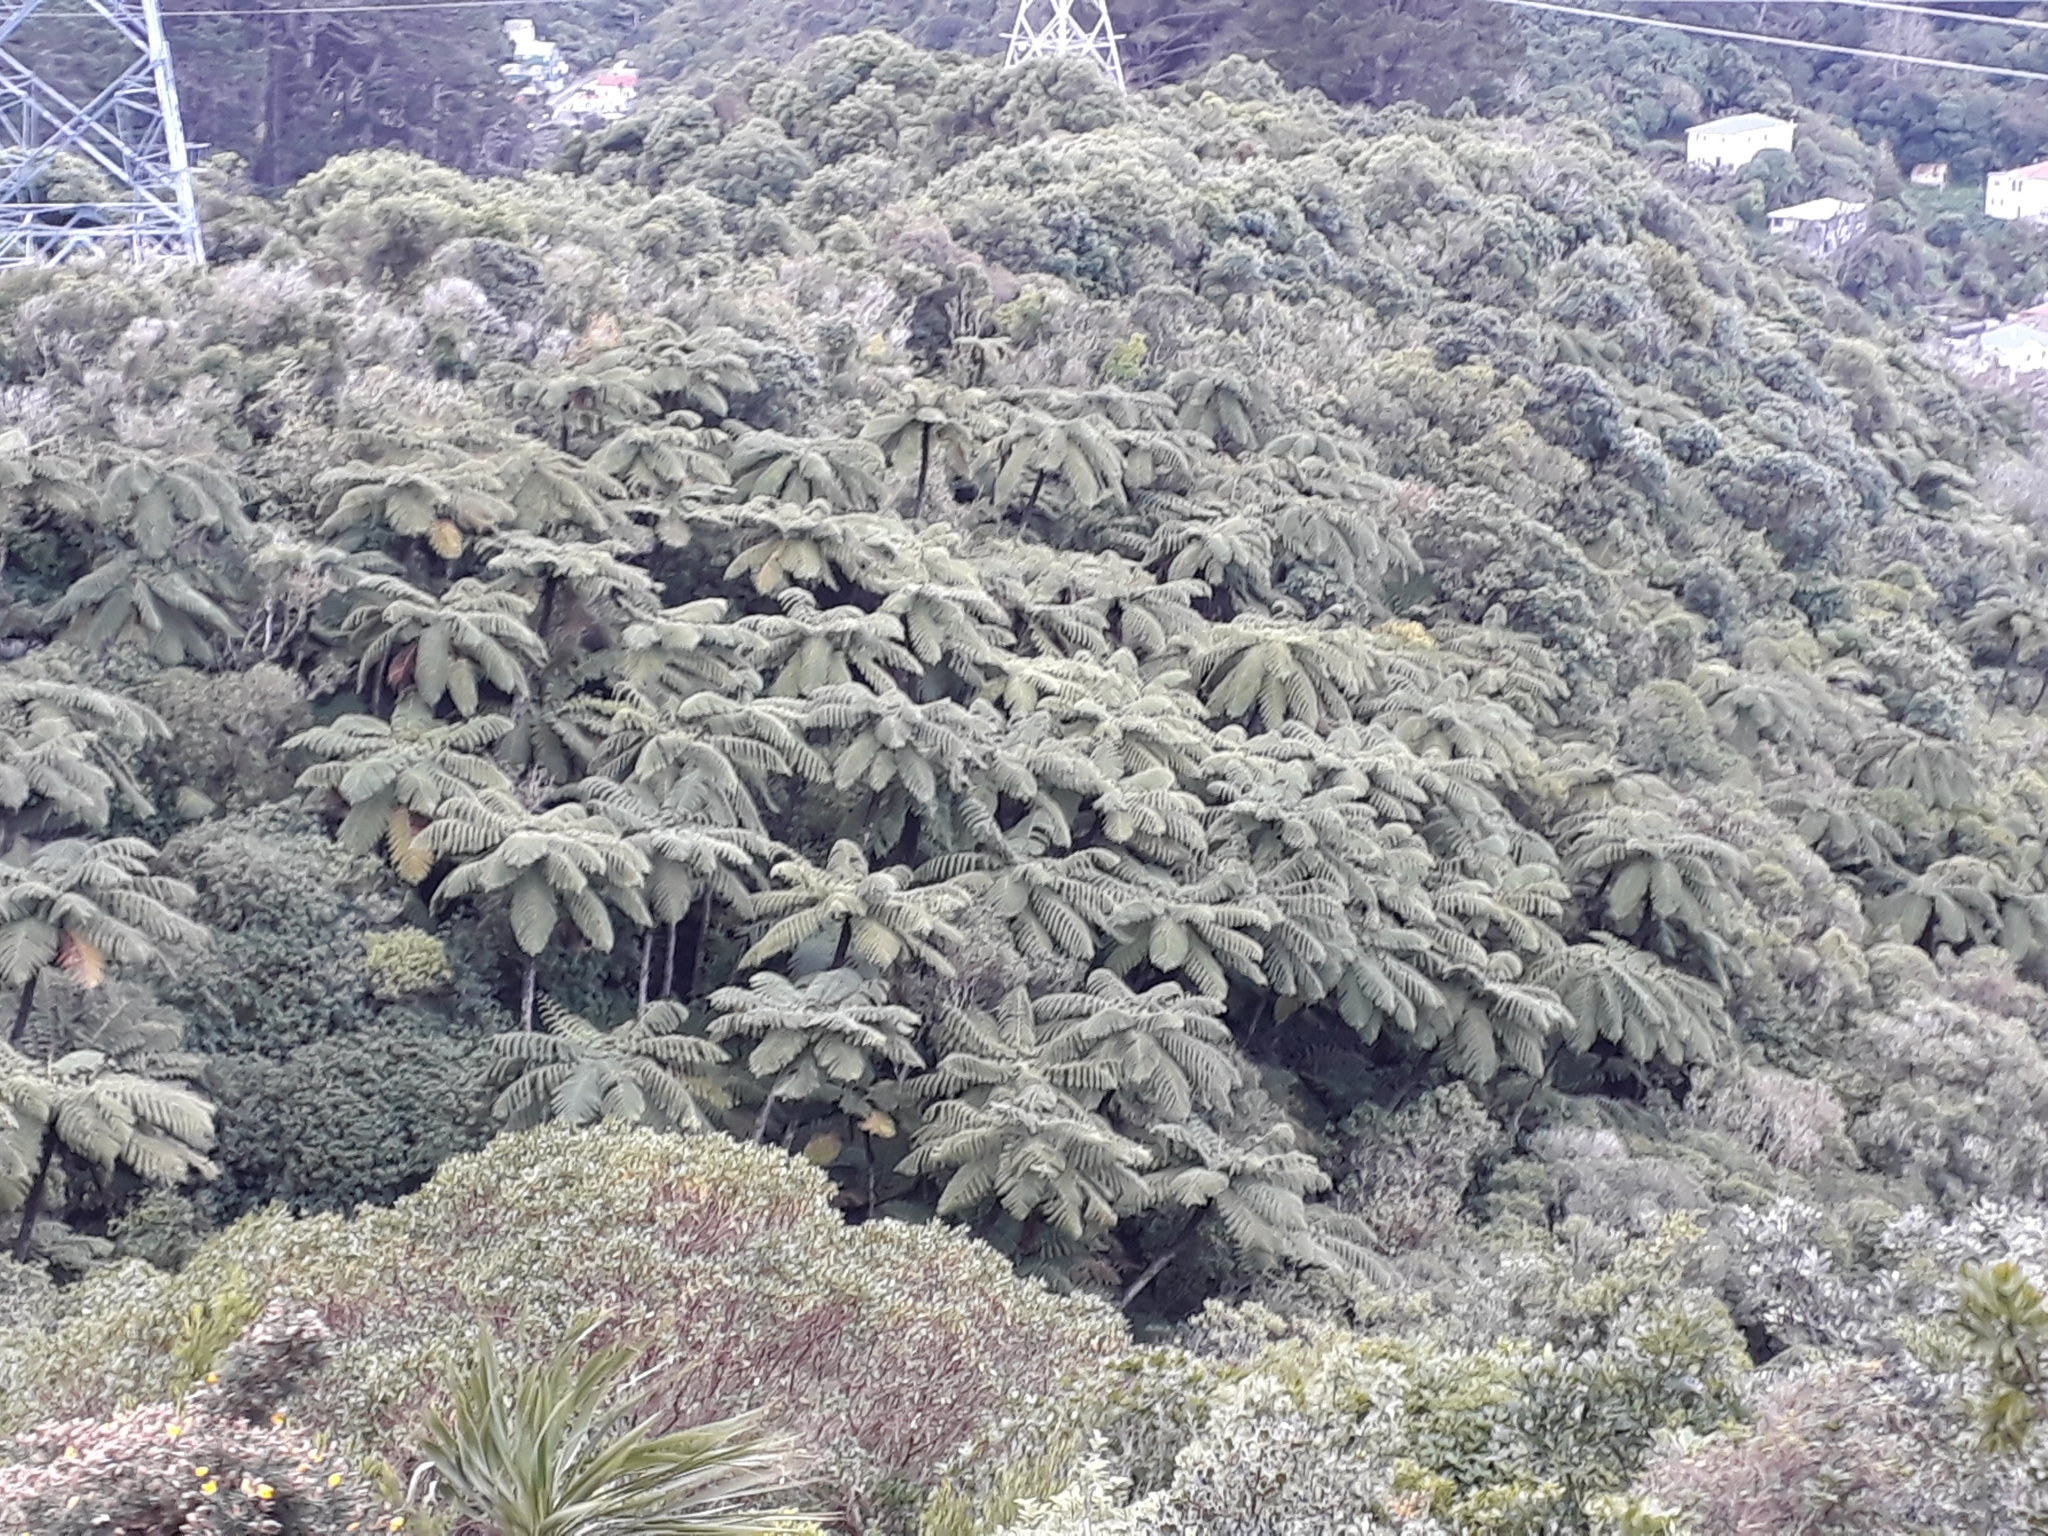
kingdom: Plantae
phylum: Tracheophyta
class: Polypodiopsida
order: Cyatheales
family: Cyatheaceae
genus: Sphaeropteris
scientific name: Sphaeropteris medullaris
